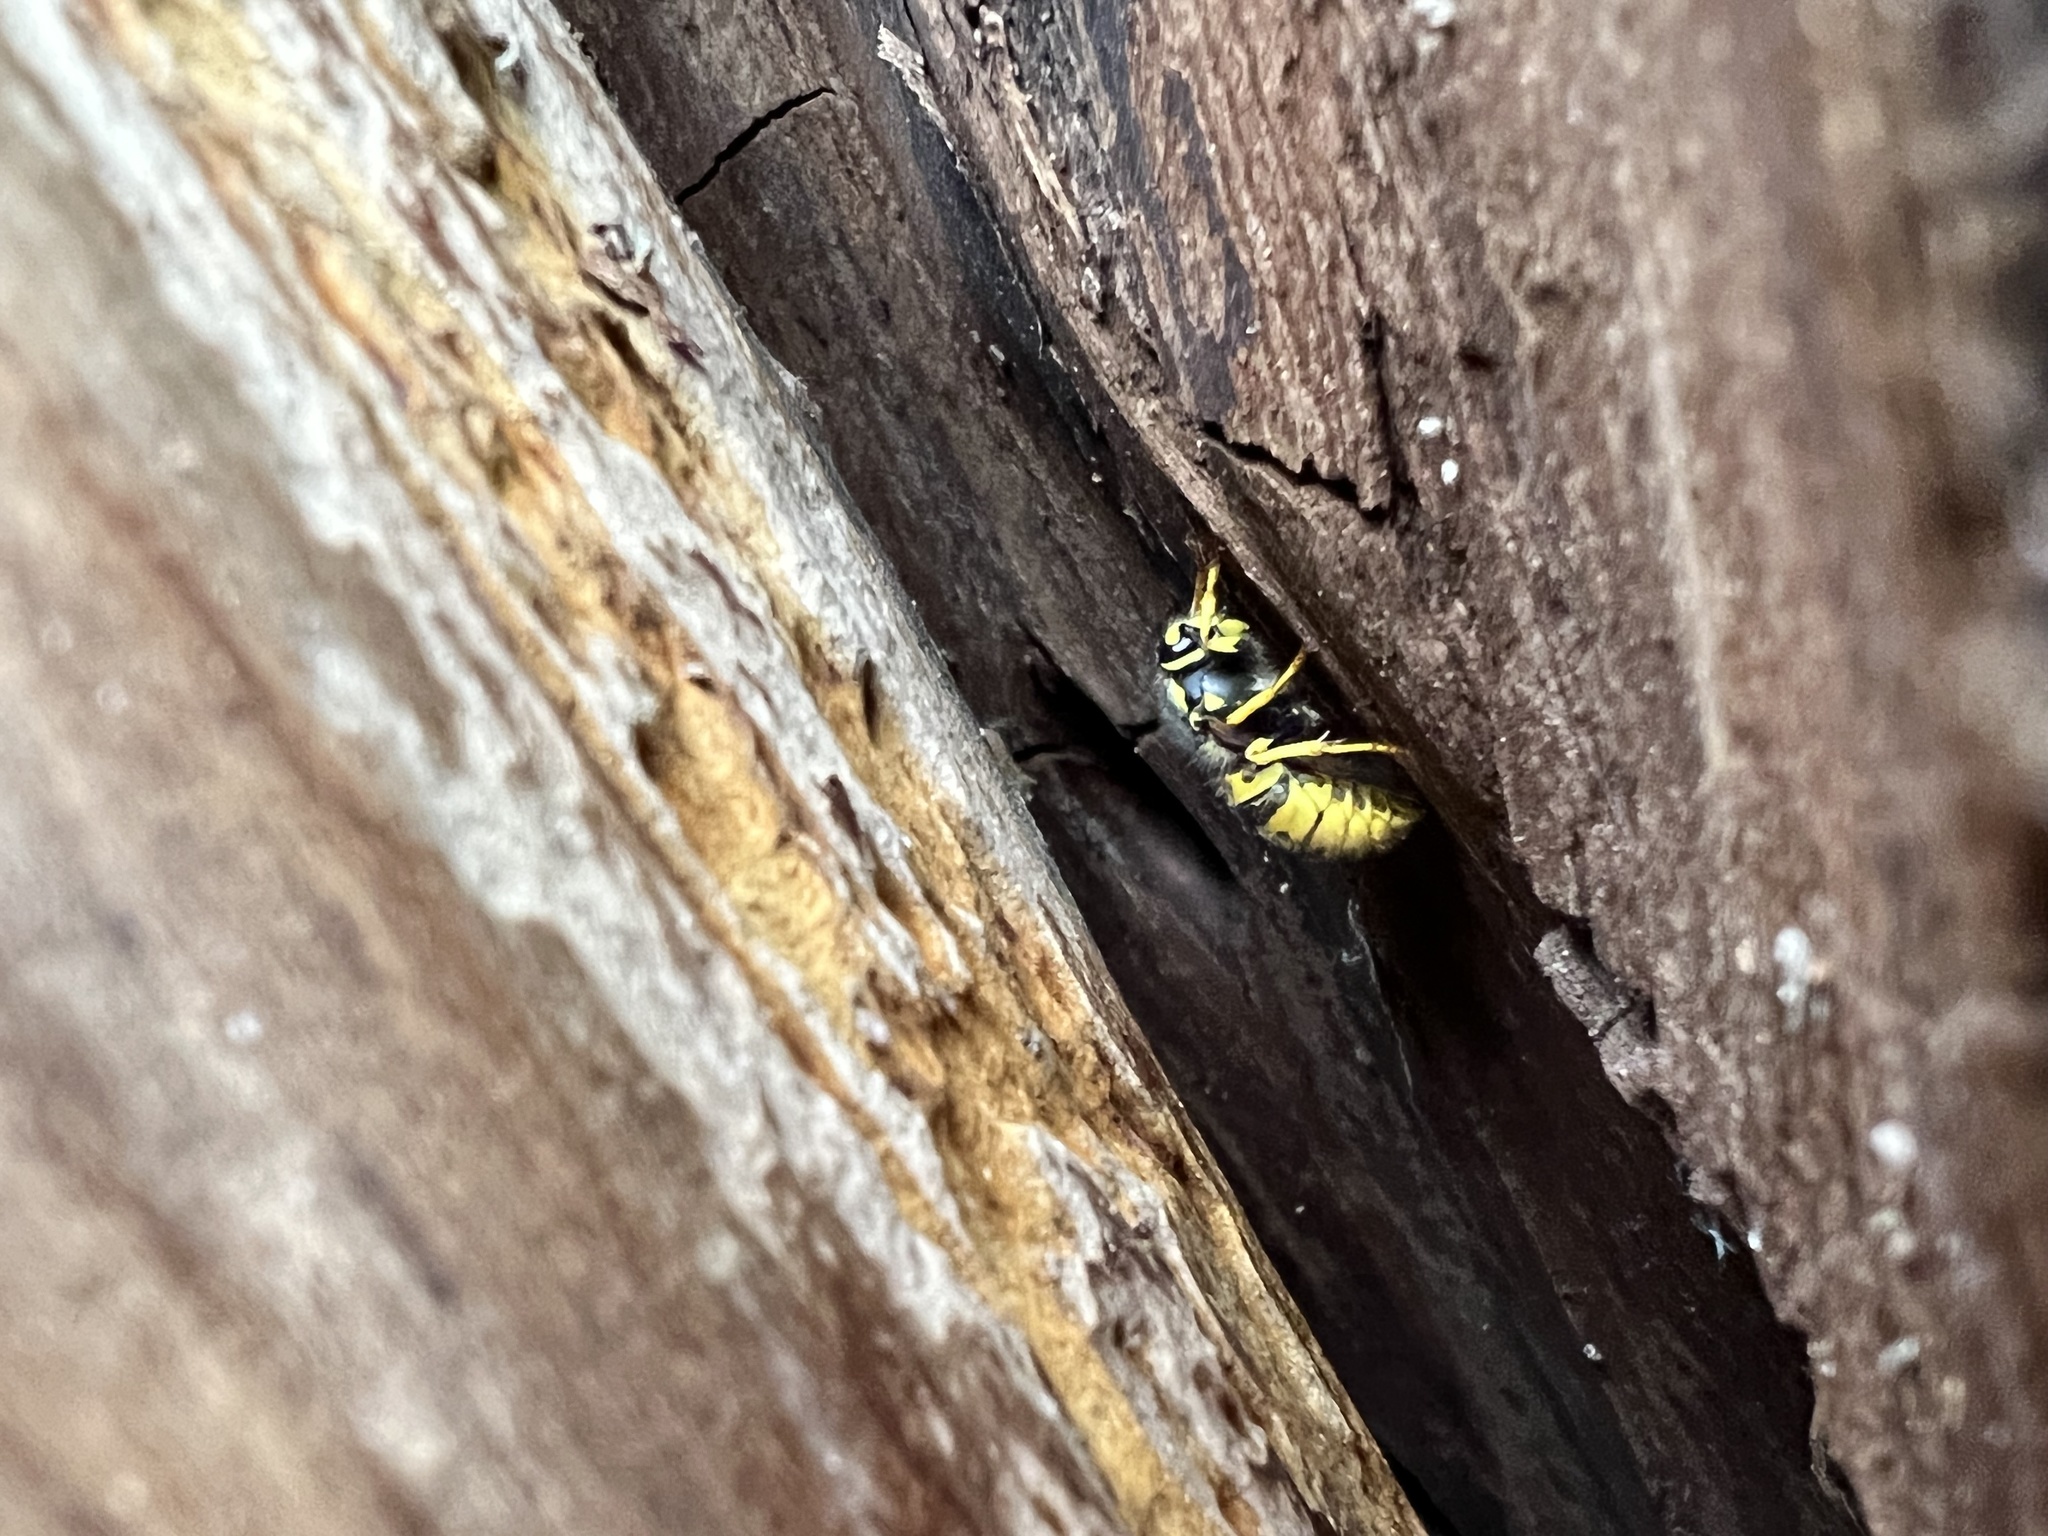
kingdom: Animalia
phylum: Arthropoda
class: Insecta
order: Hymenoptera
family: Vespidae
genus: Vespula
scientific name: Vespula germanica
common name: German wasp
